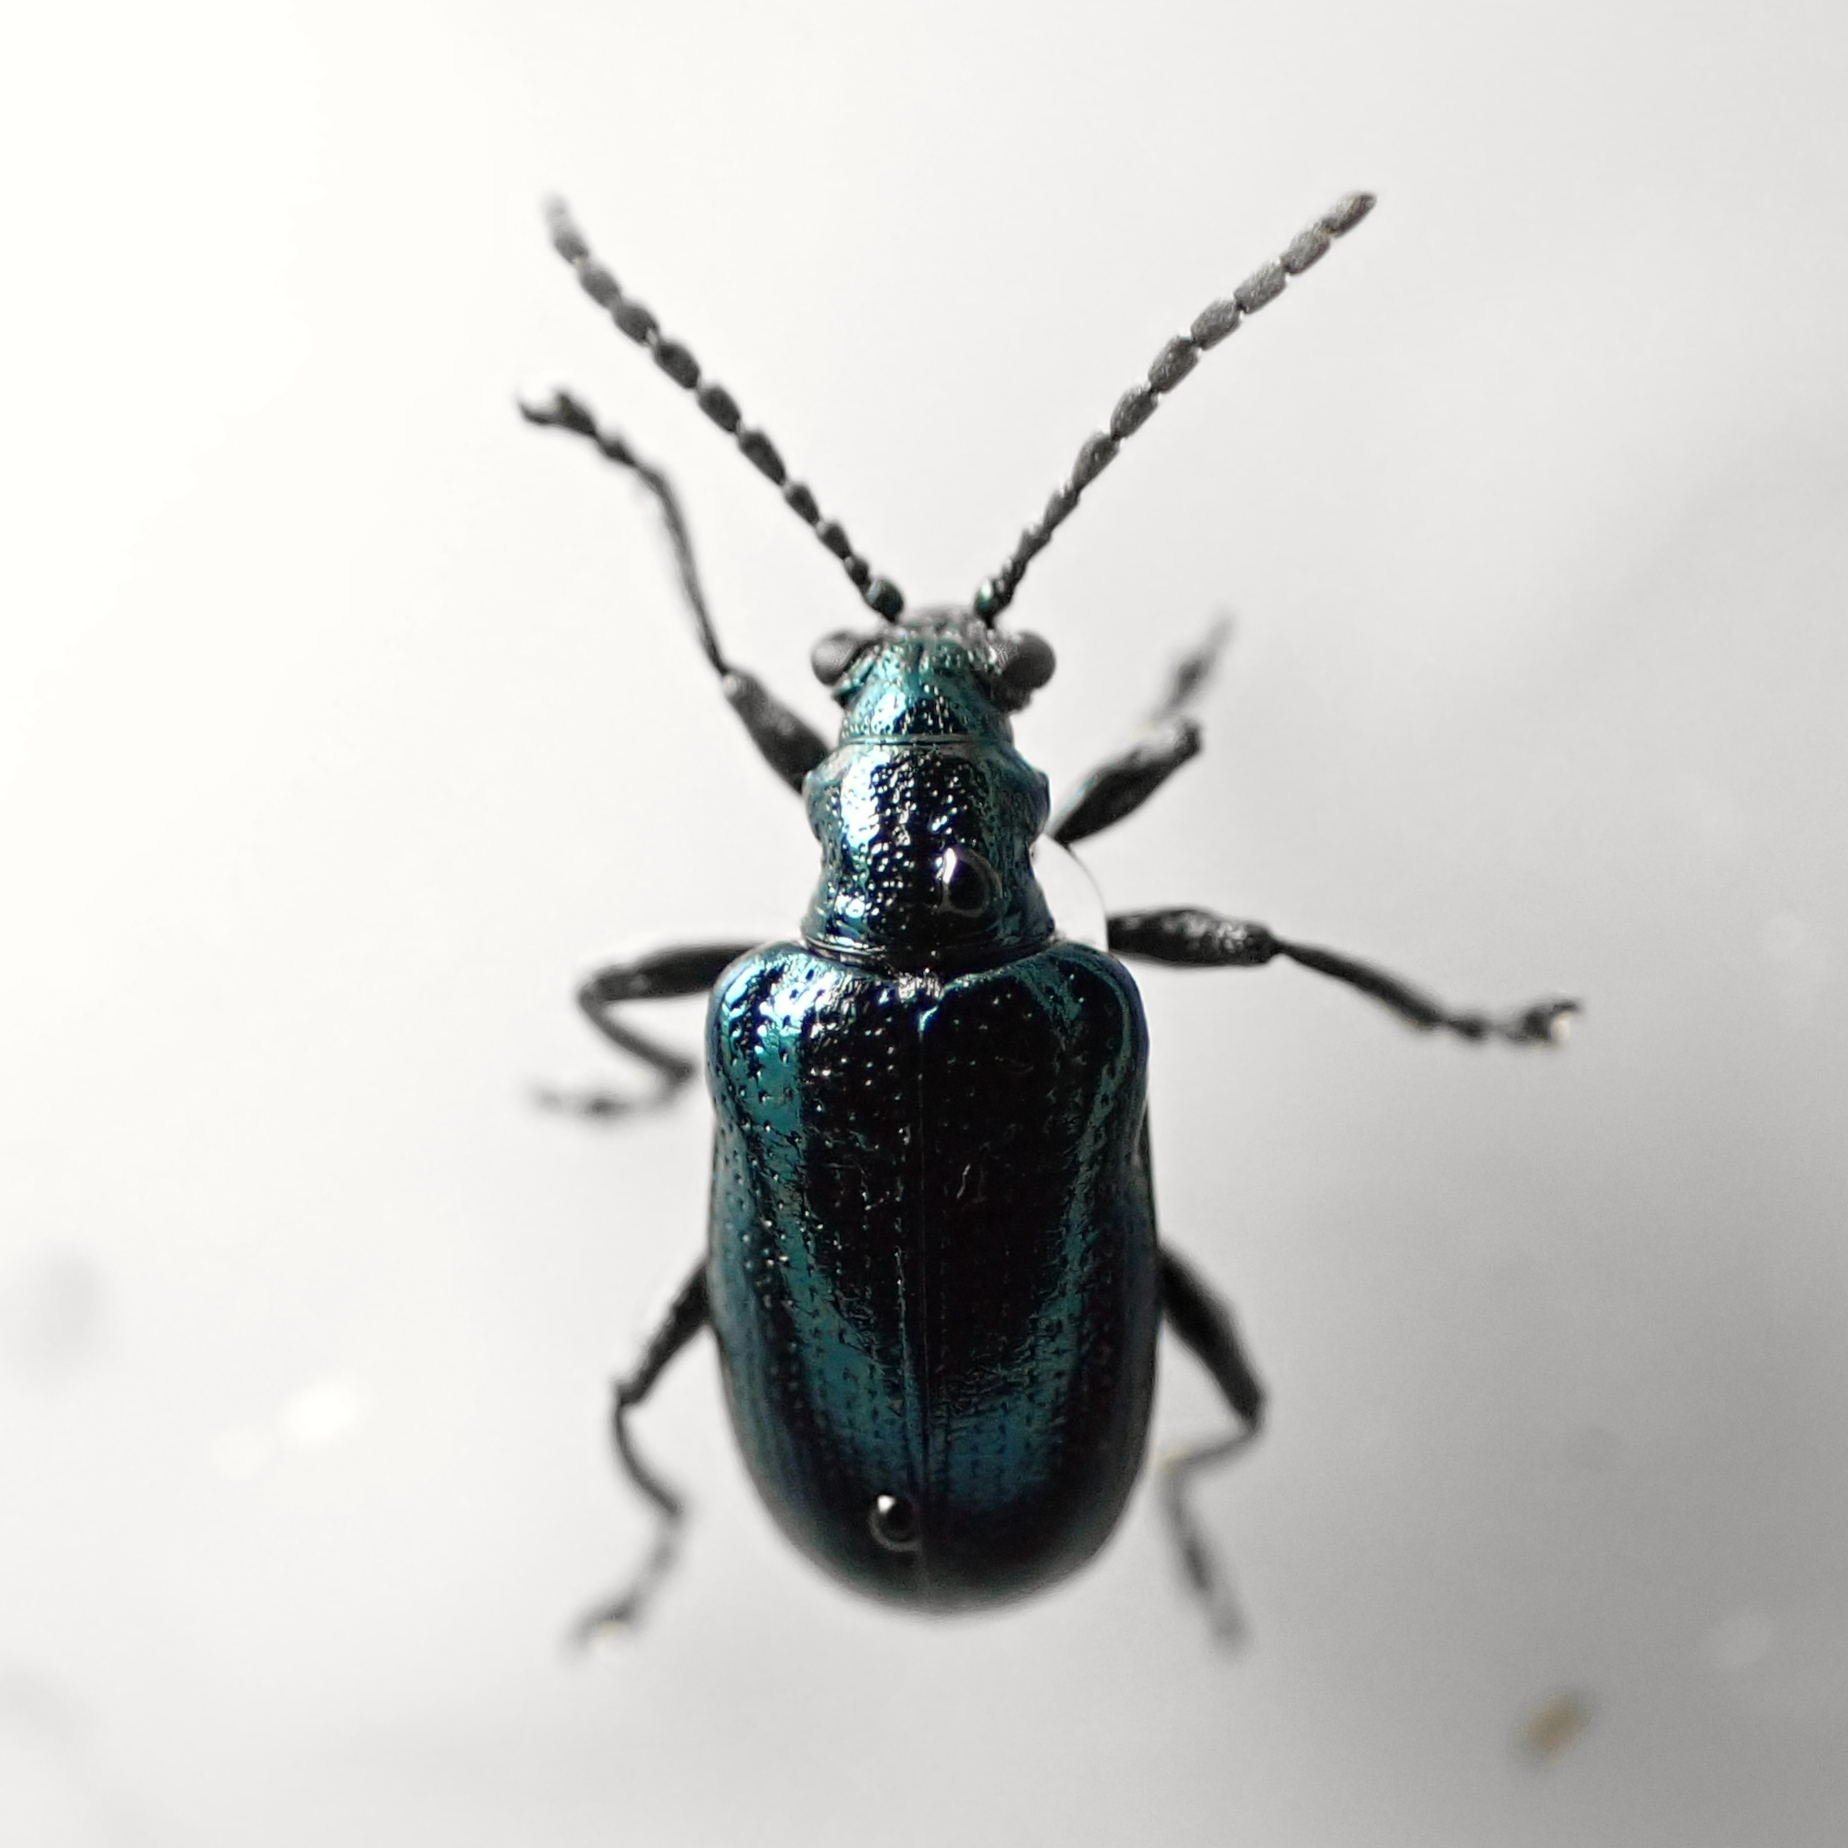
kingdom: Animalia
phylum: Arthropoda
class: Insecta
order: Coleoptera
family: Chrysomelidae
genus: Lema
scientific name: Lema cyanella
